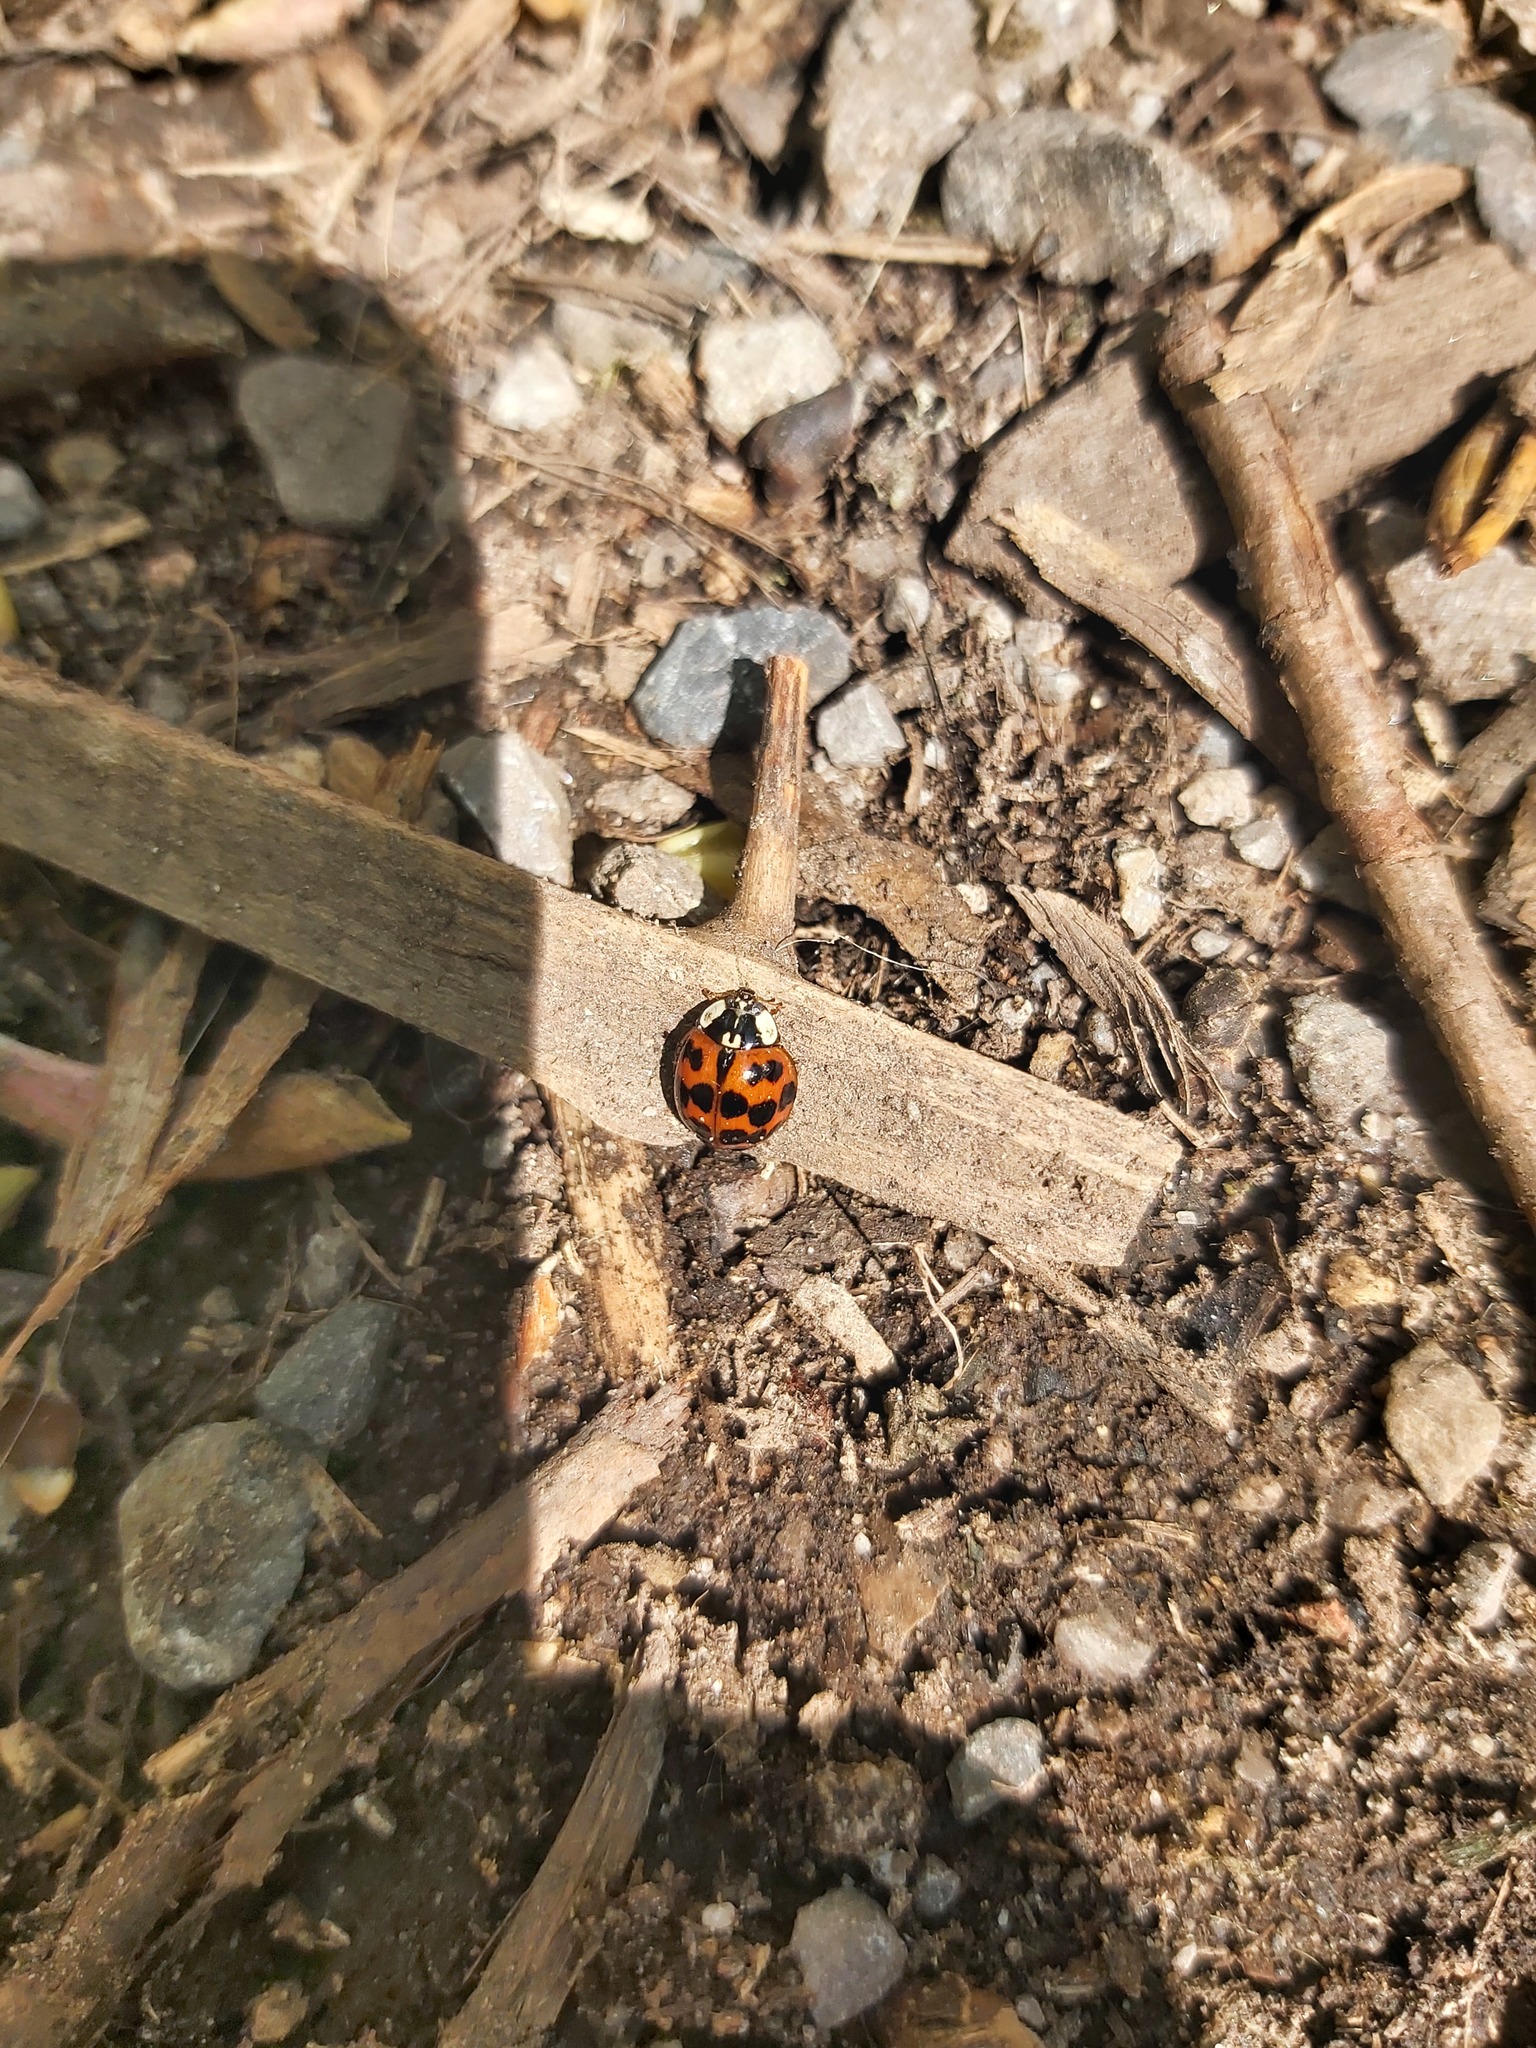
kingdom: Animalia
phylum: Arthropoda
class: Insecta
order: Coleoptera
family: Coccinellidae
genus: Harmonia
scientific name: Harmonia axyridis
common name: Harlequin ladybird
